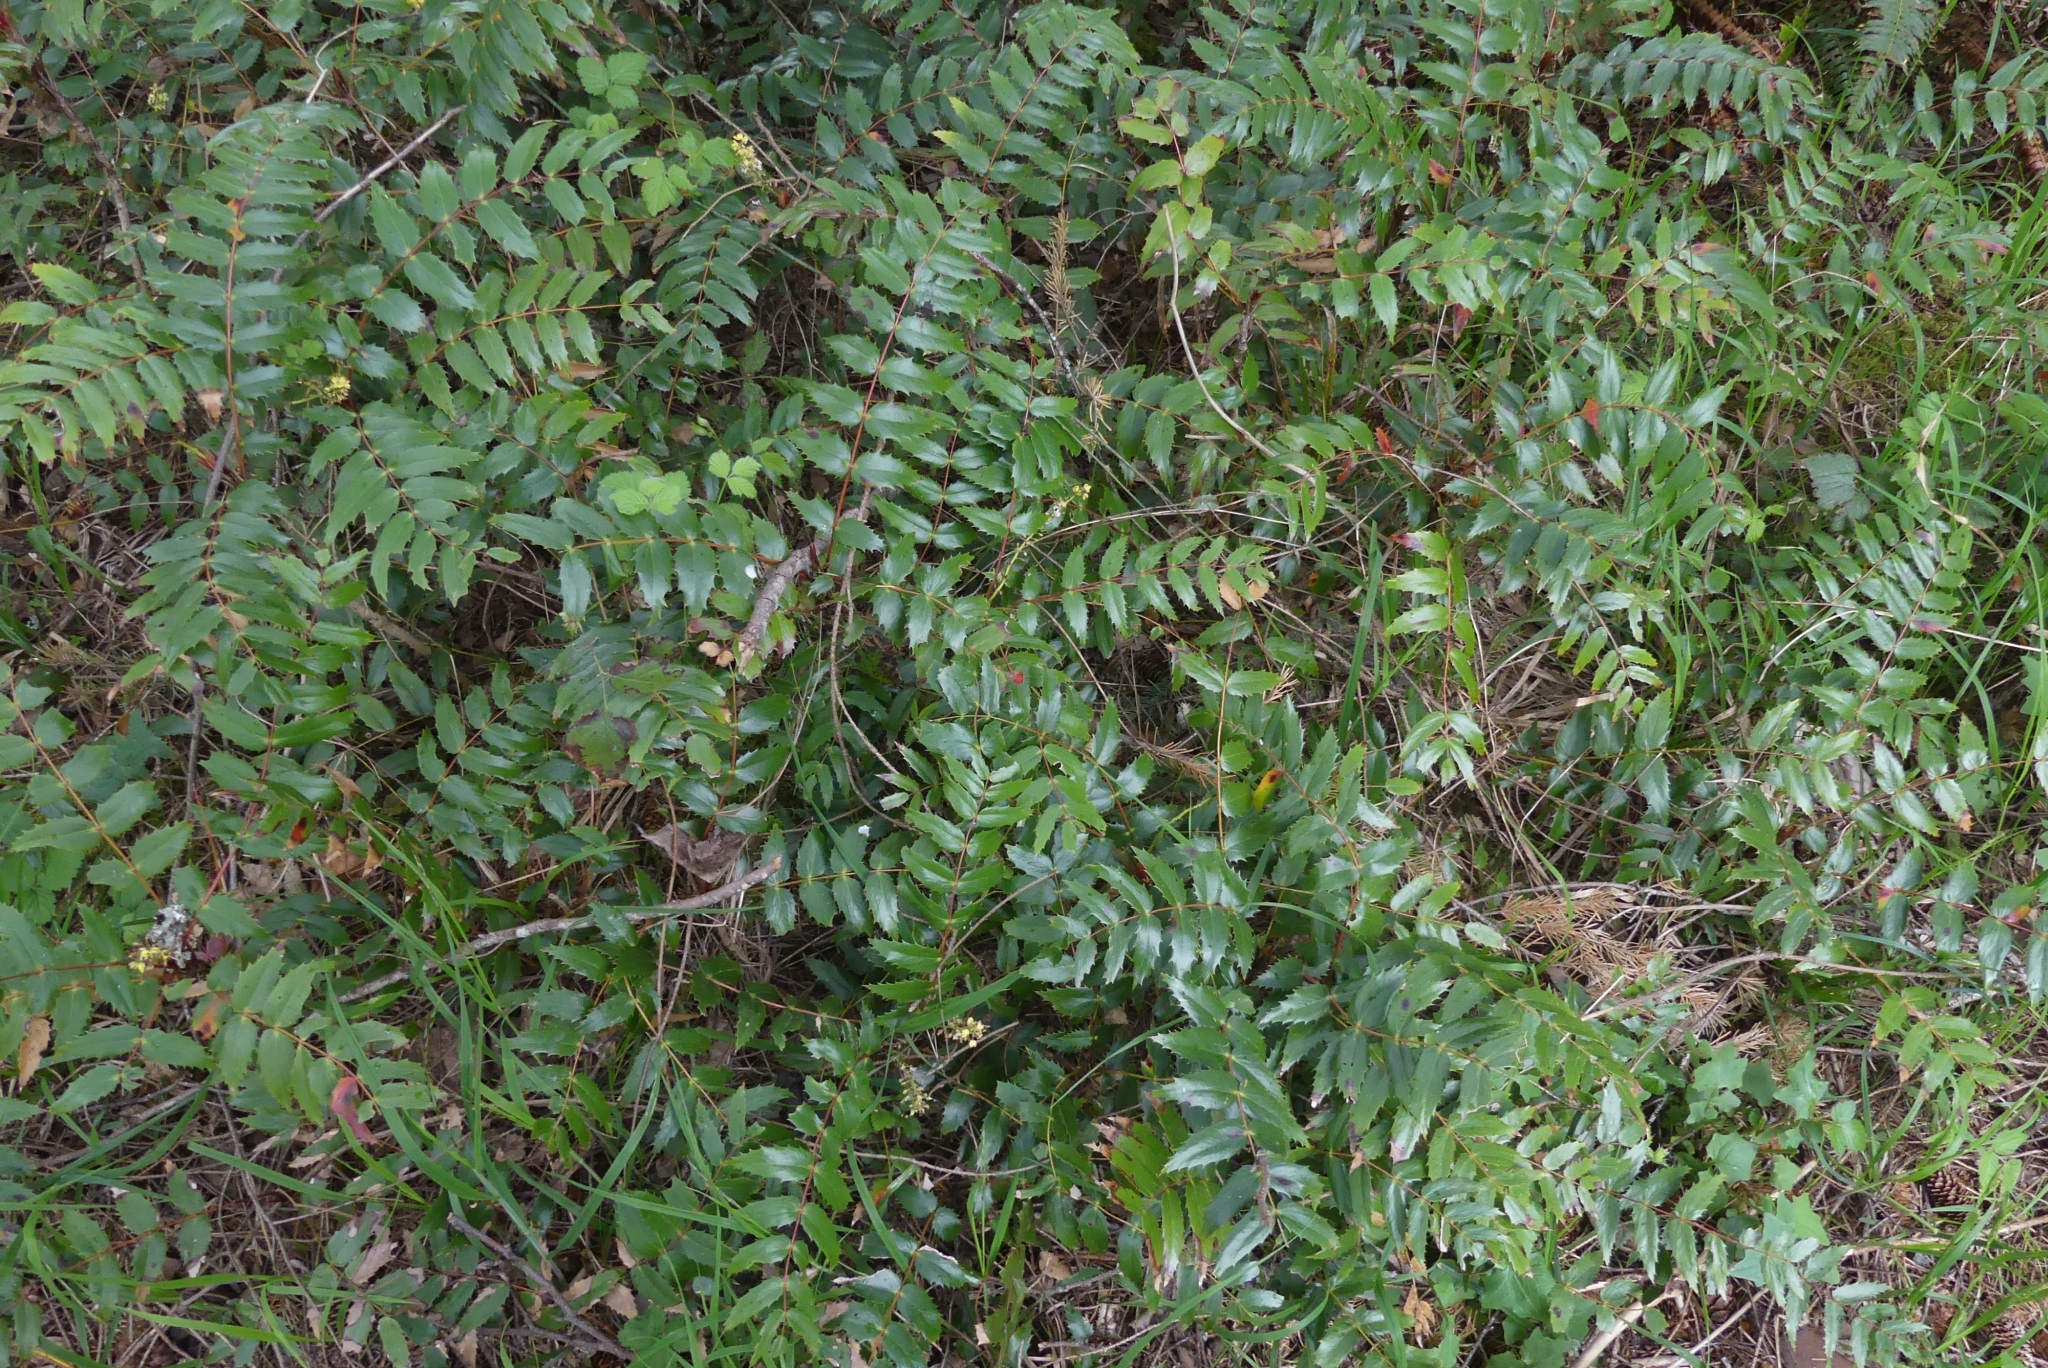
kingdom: Plantae
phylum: Tracheophyta
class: Magnoliopsida
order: Ranunculales
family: Berberidaceae
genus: Mahonia
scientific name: Mahonia nervosa
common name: Cascade oregon-grape
